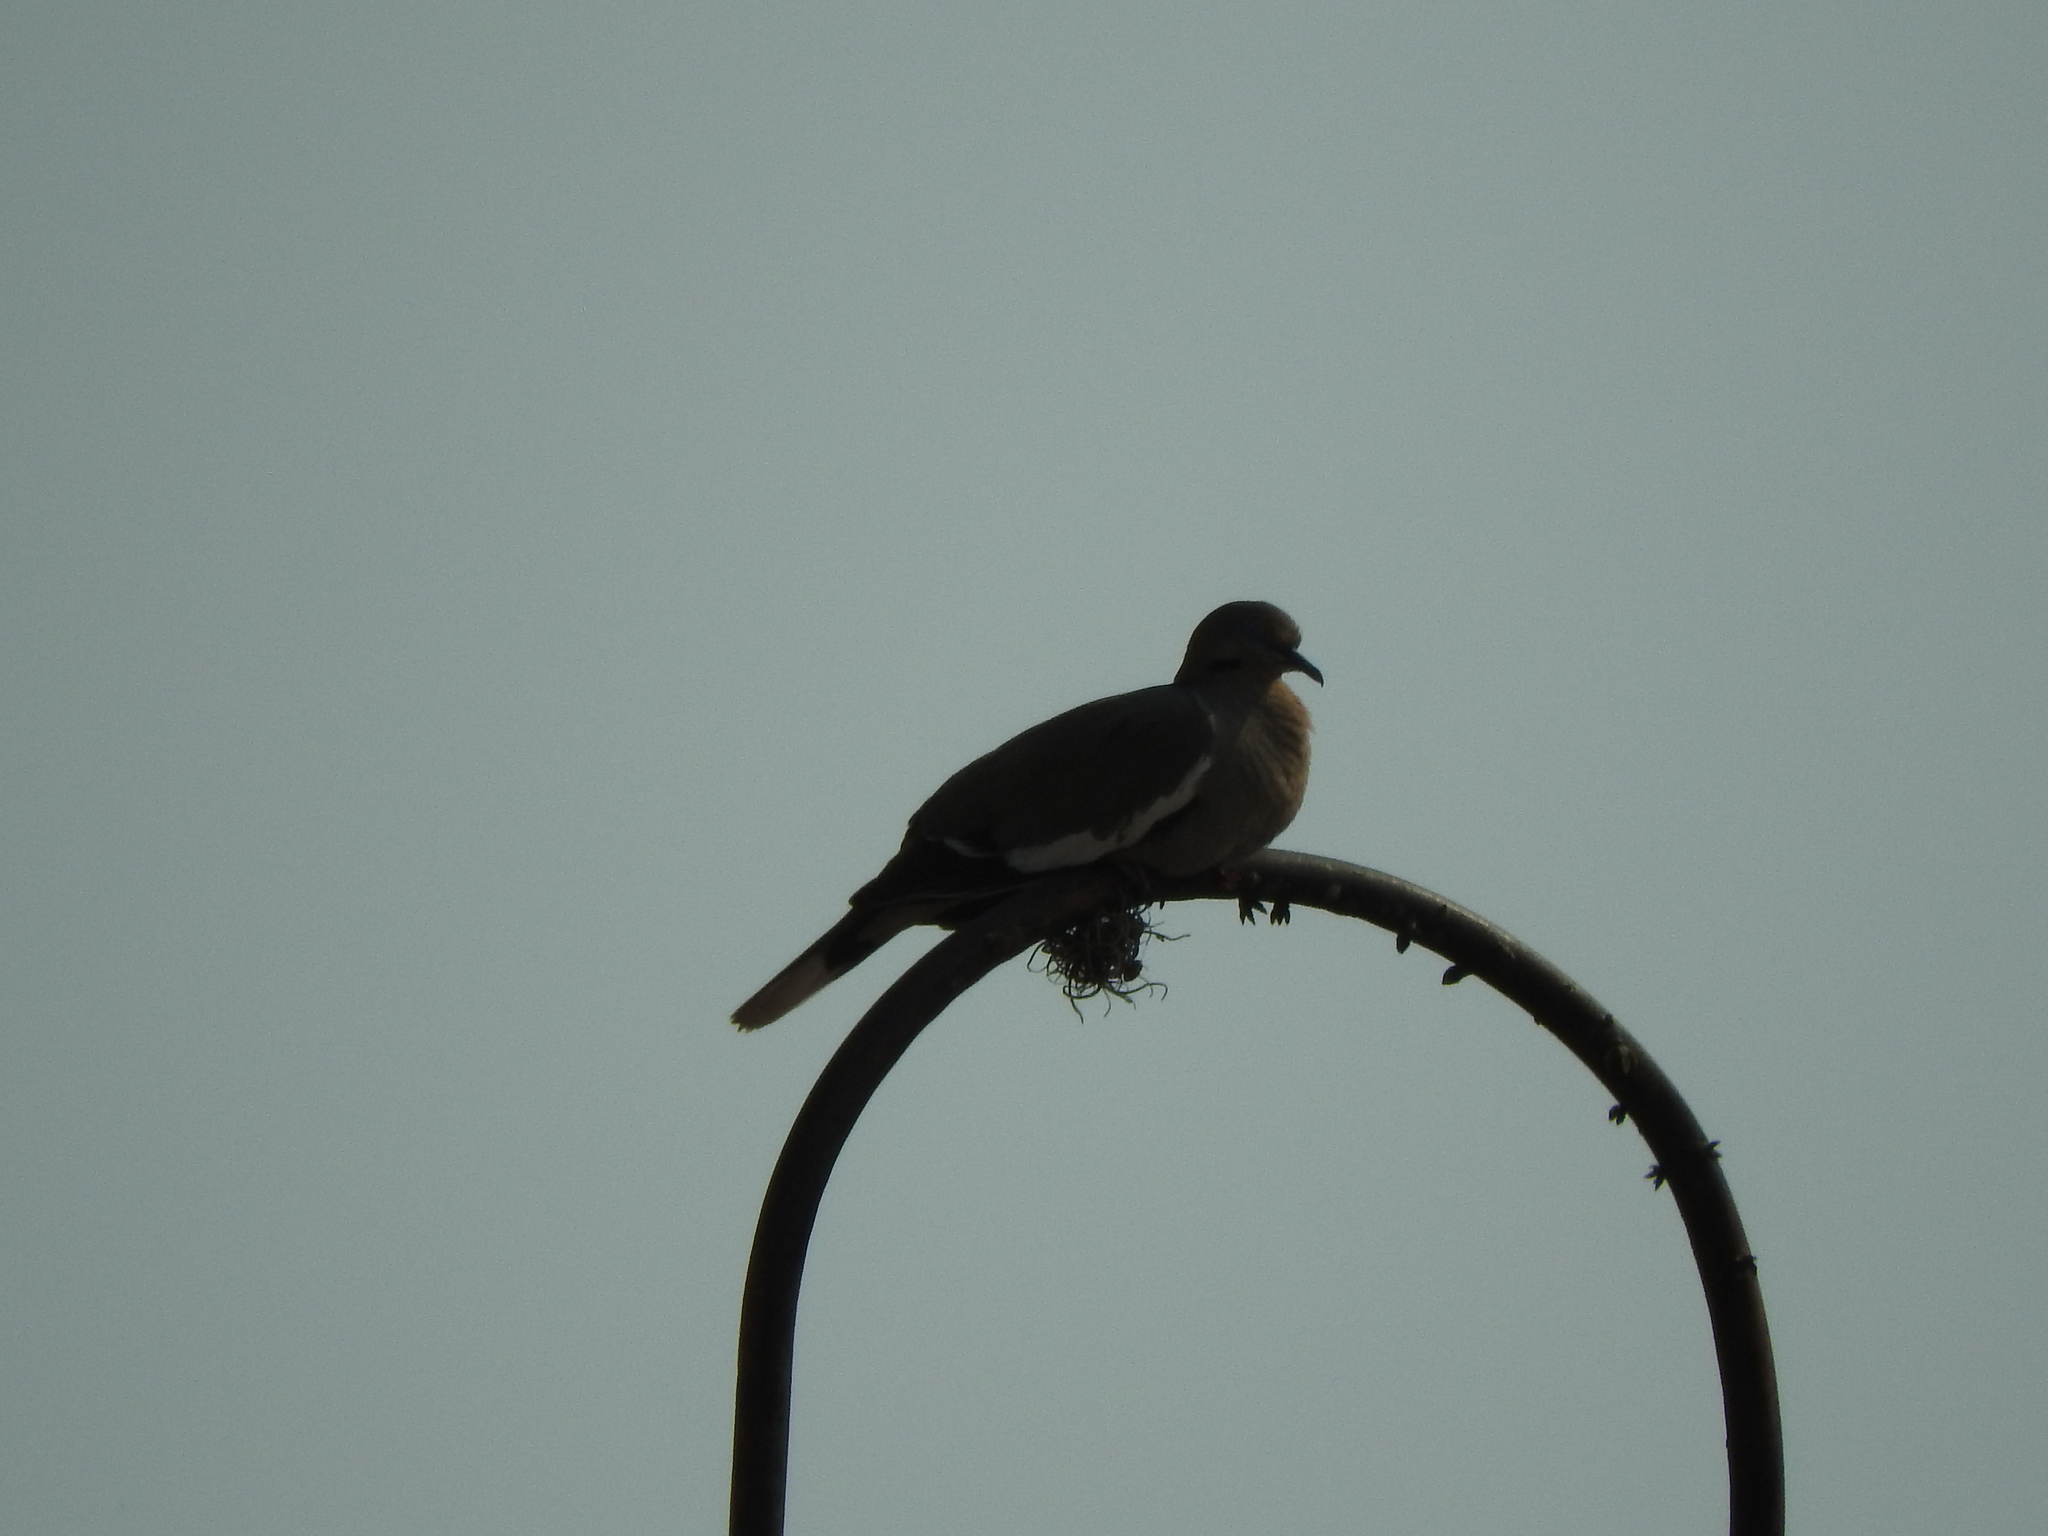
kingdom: Animalia
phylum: Chordata
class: Aves
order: Columbiformes
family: Columbidae
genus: Zenaida
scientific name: Zenaida asiatica
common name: White-winged dove
